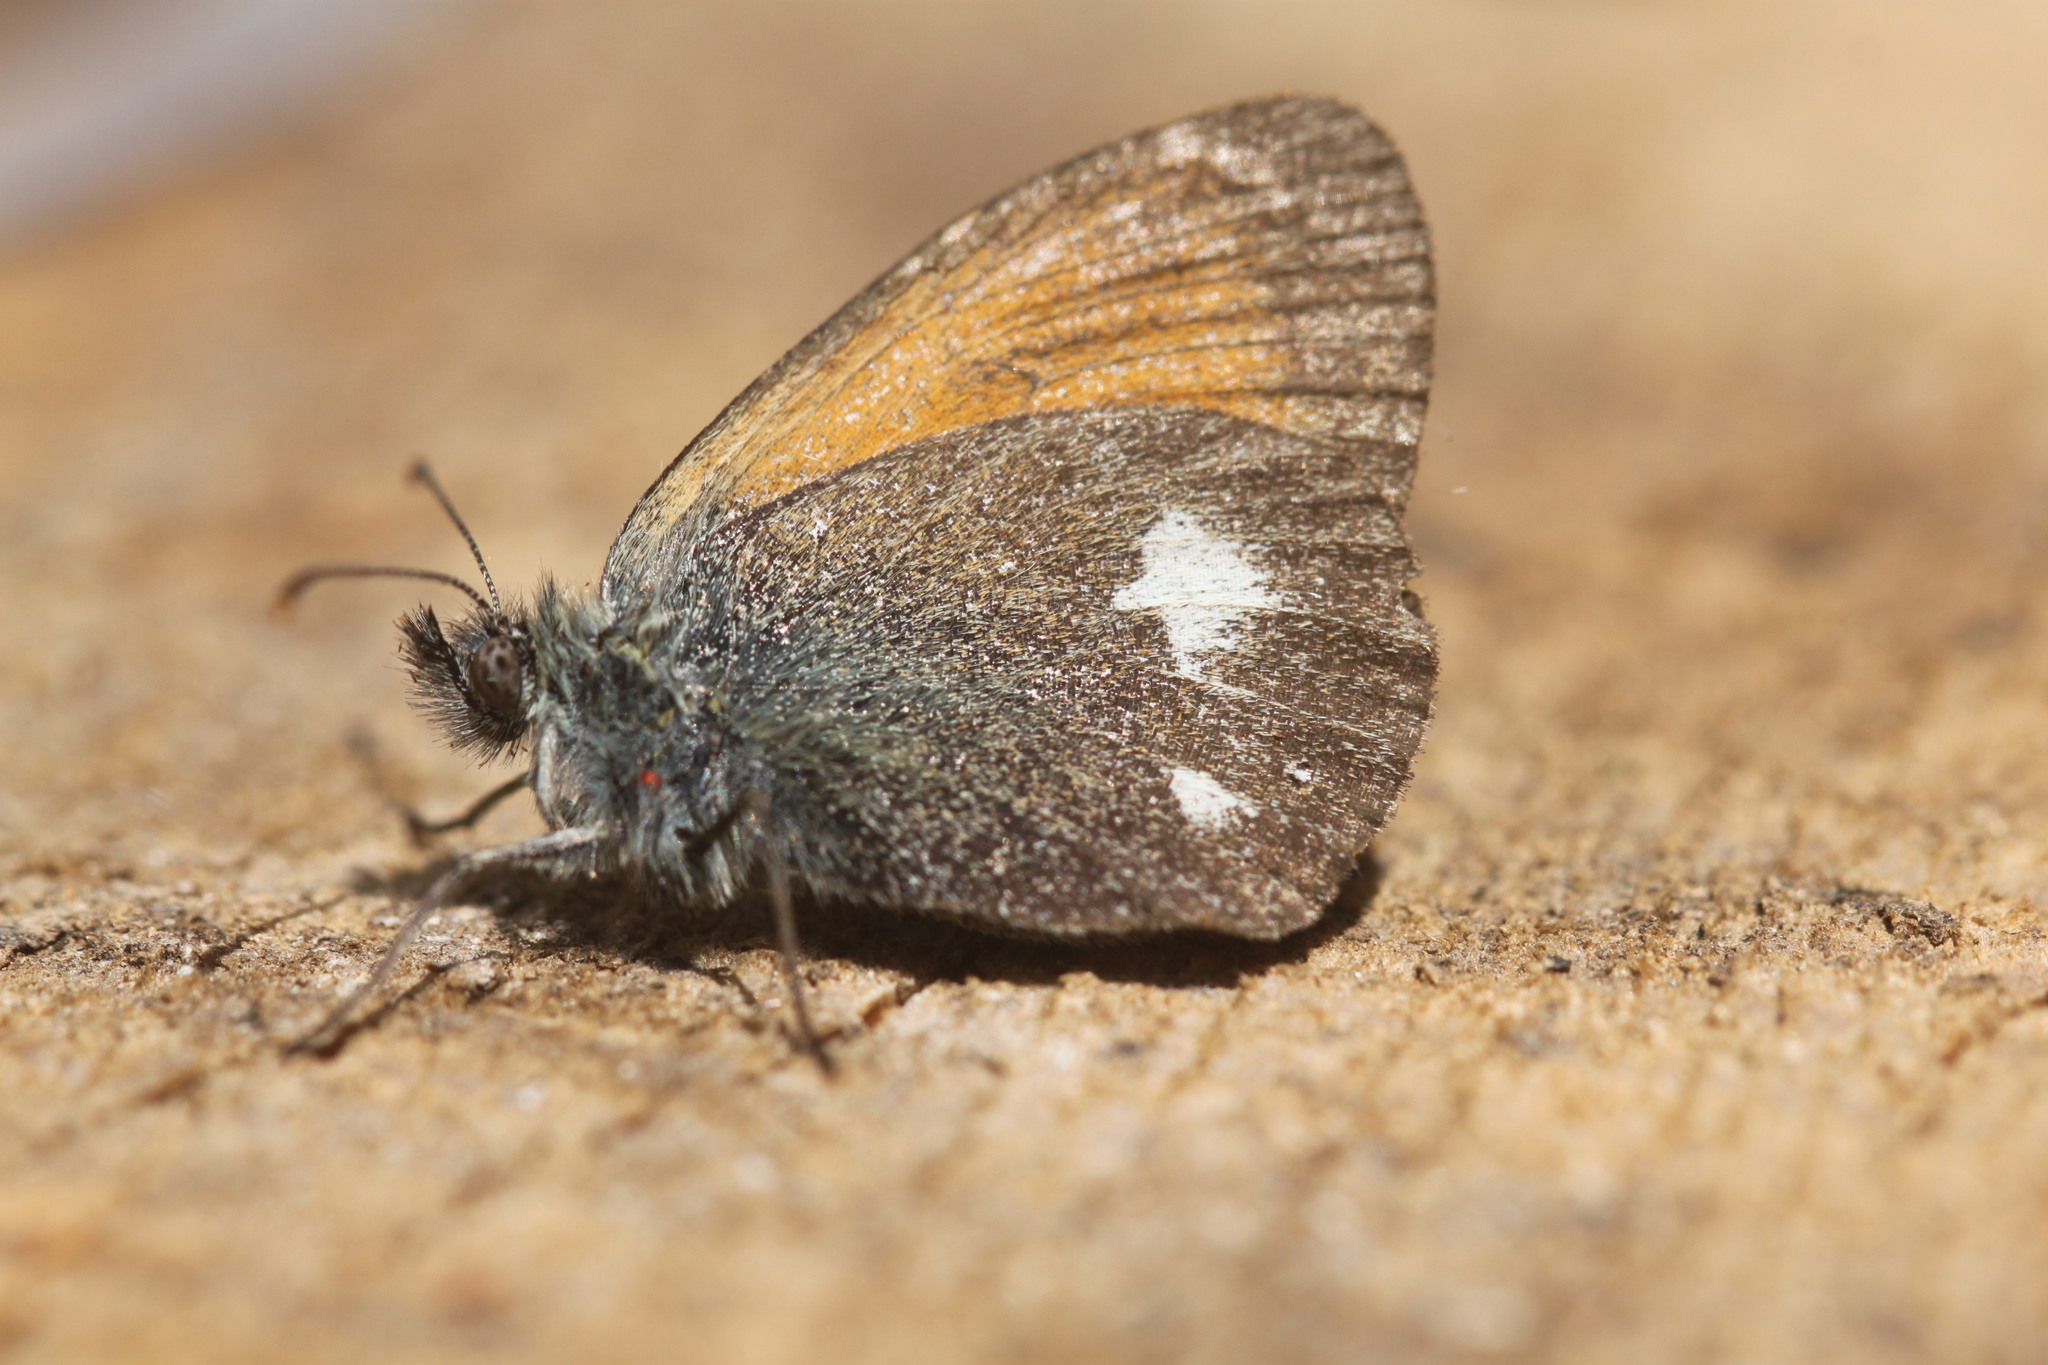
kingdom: Animalia
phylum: Arthropoda
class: Insecta
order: Lepidoptera
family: Nymphalidae
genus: Coenonympha
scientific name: Coenonympha iphis
